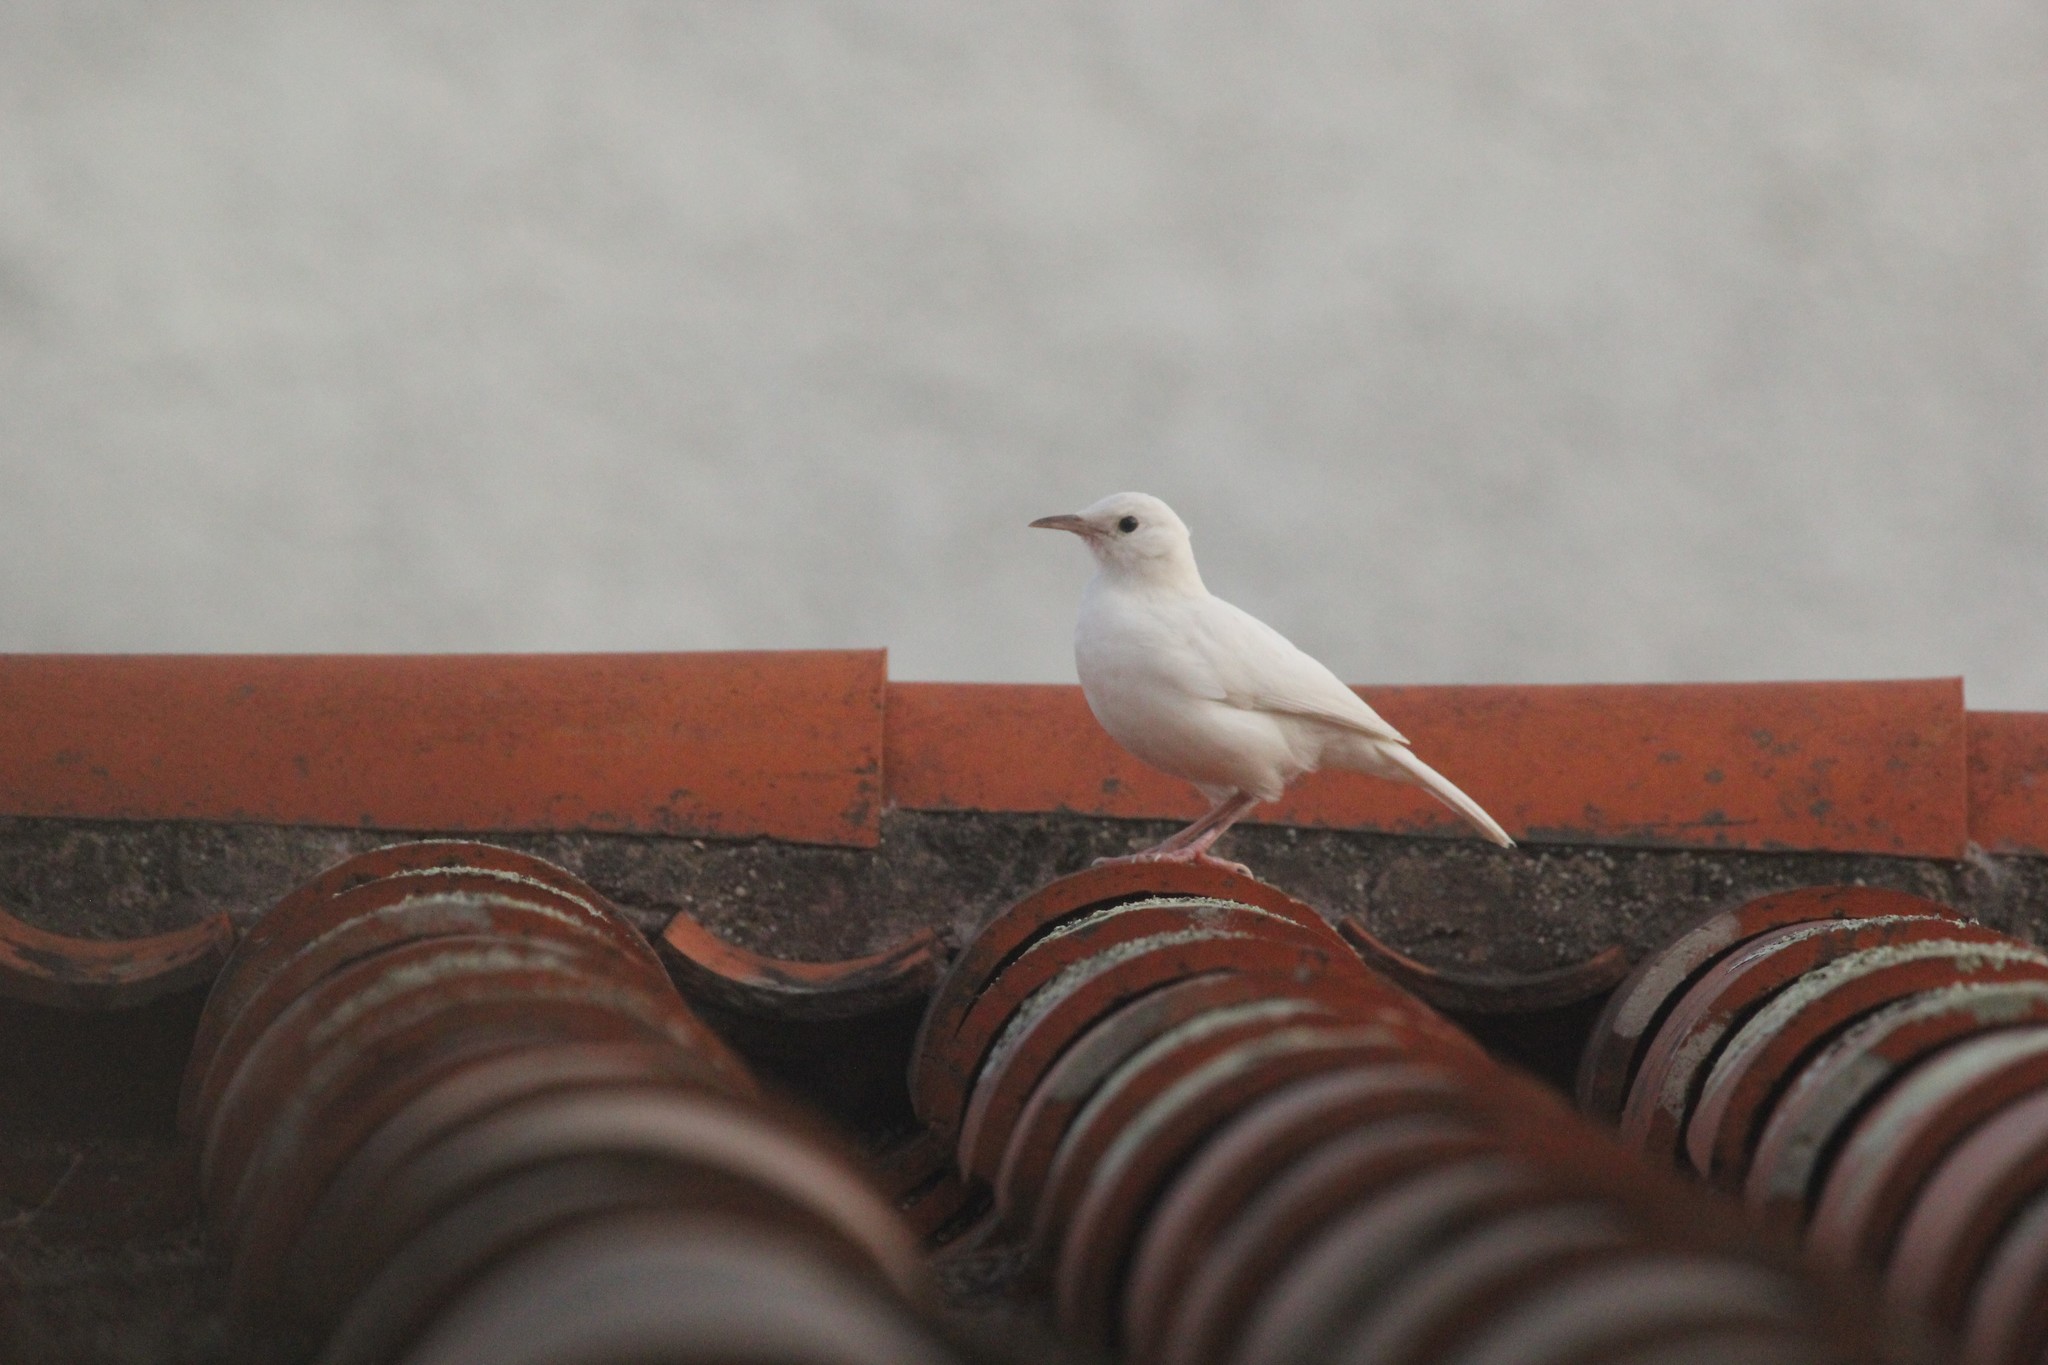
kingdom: Animalia
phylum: Chordata
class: Aves
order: Passeriformes
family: Furnariidae
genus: Furnarius
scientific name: Furnarius rufus
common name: Rufous hornero
